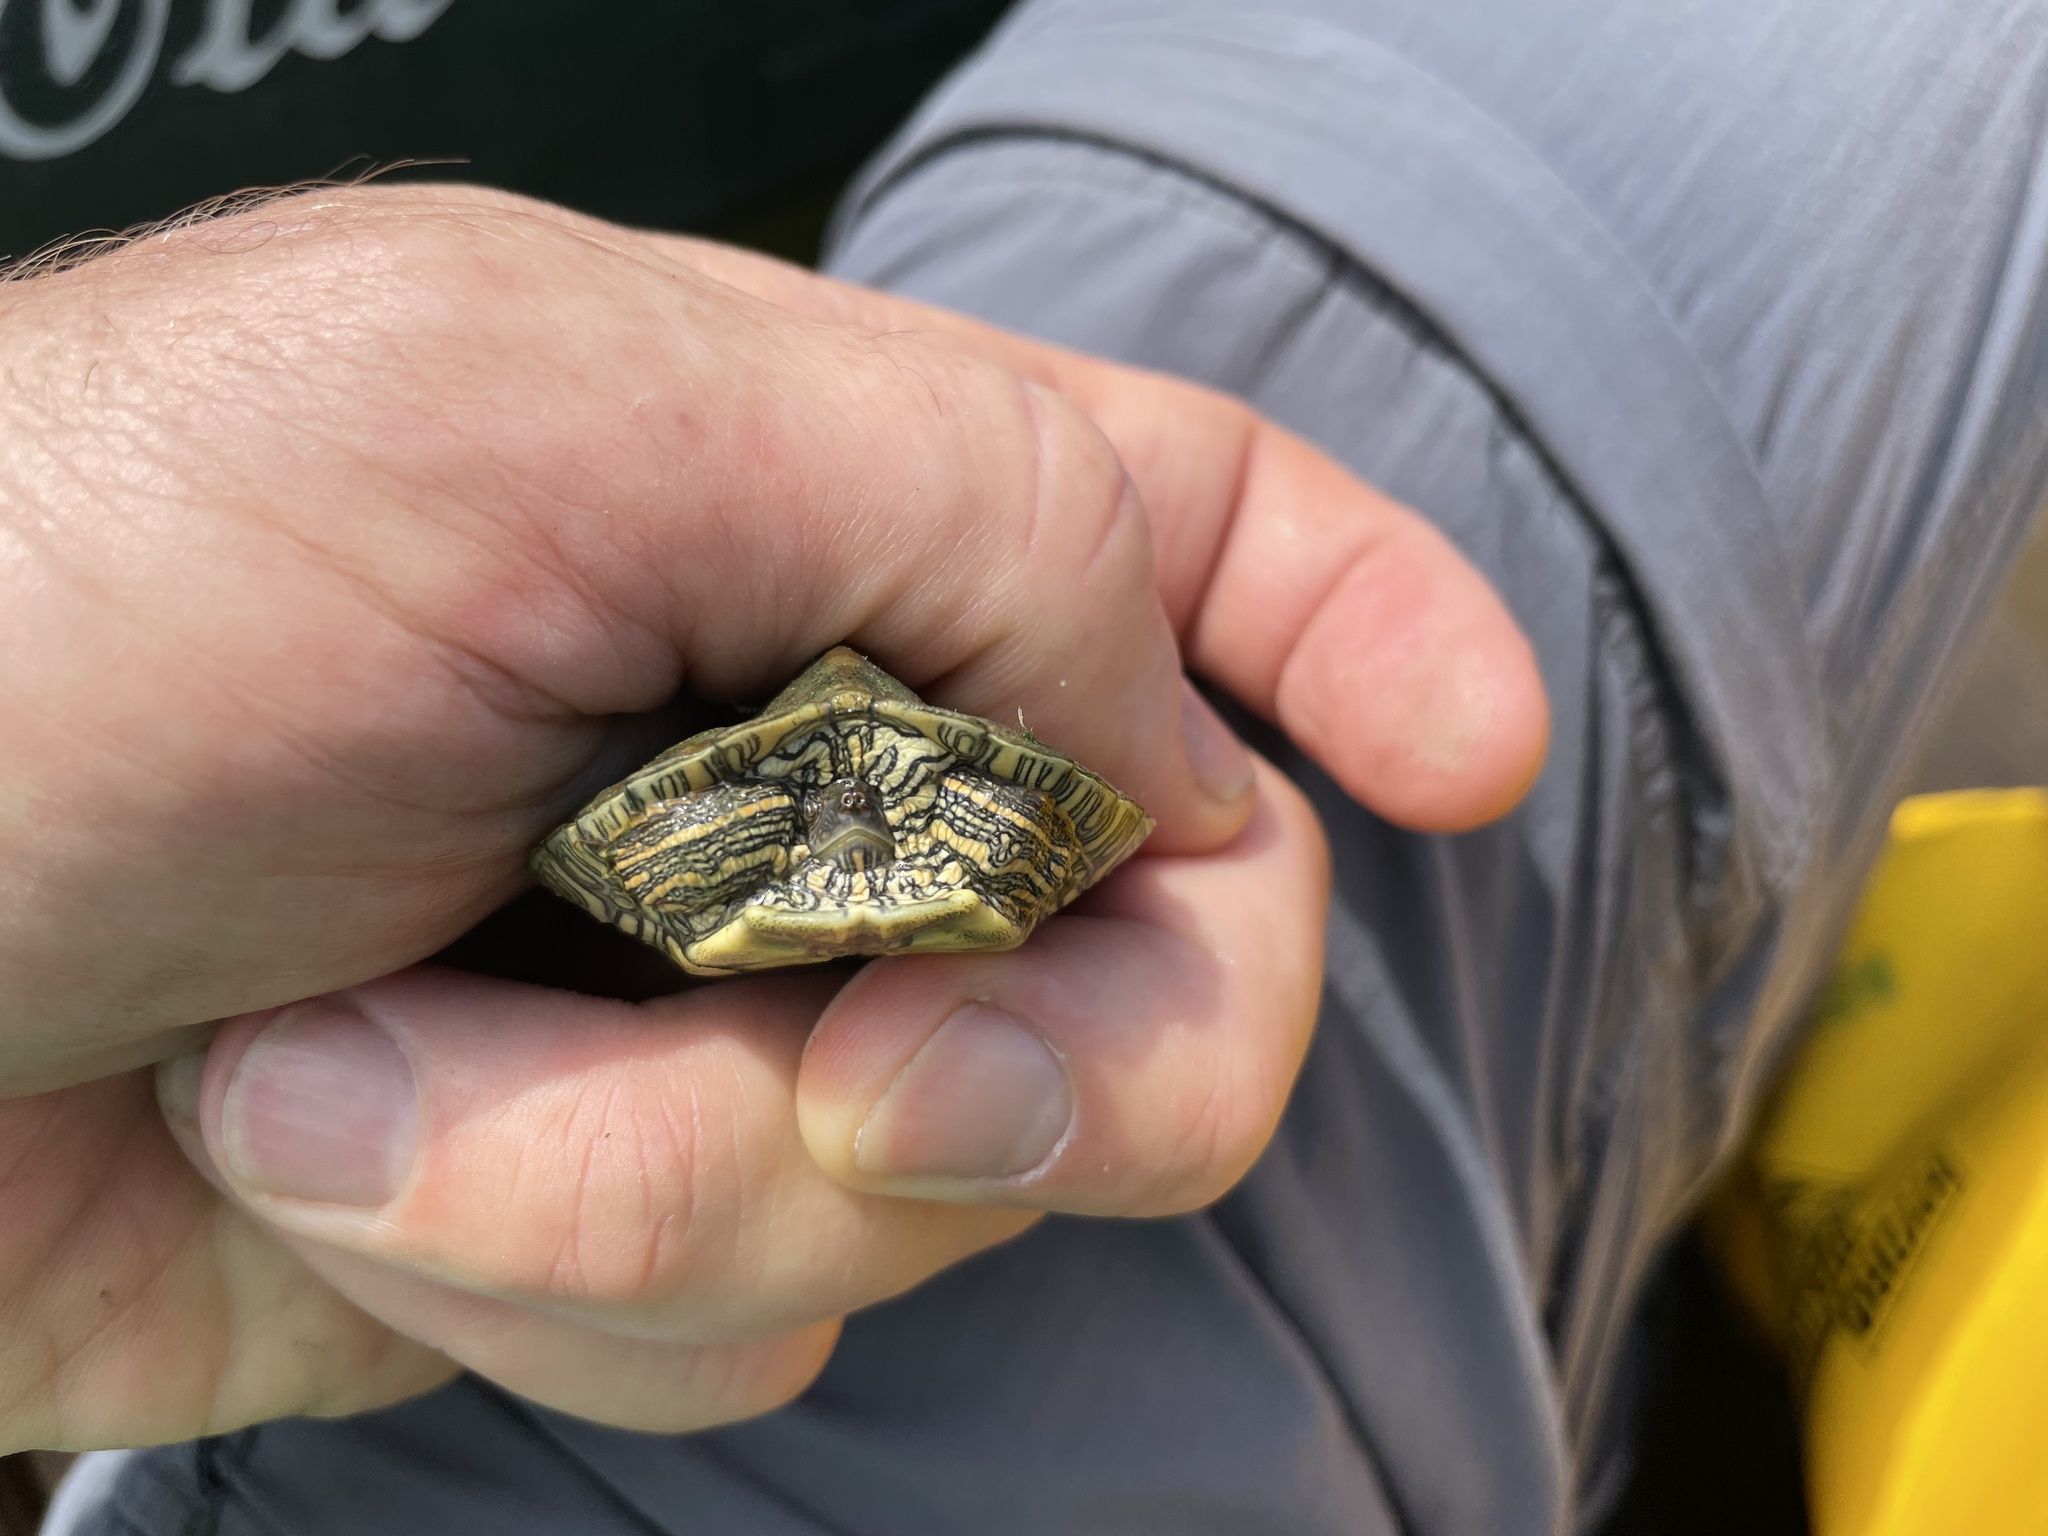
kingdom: Animalia
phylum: Chordata
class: Testudines
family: Emydidae
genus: Graptemys
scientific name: Graptemys versa
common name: Texas map turtle
